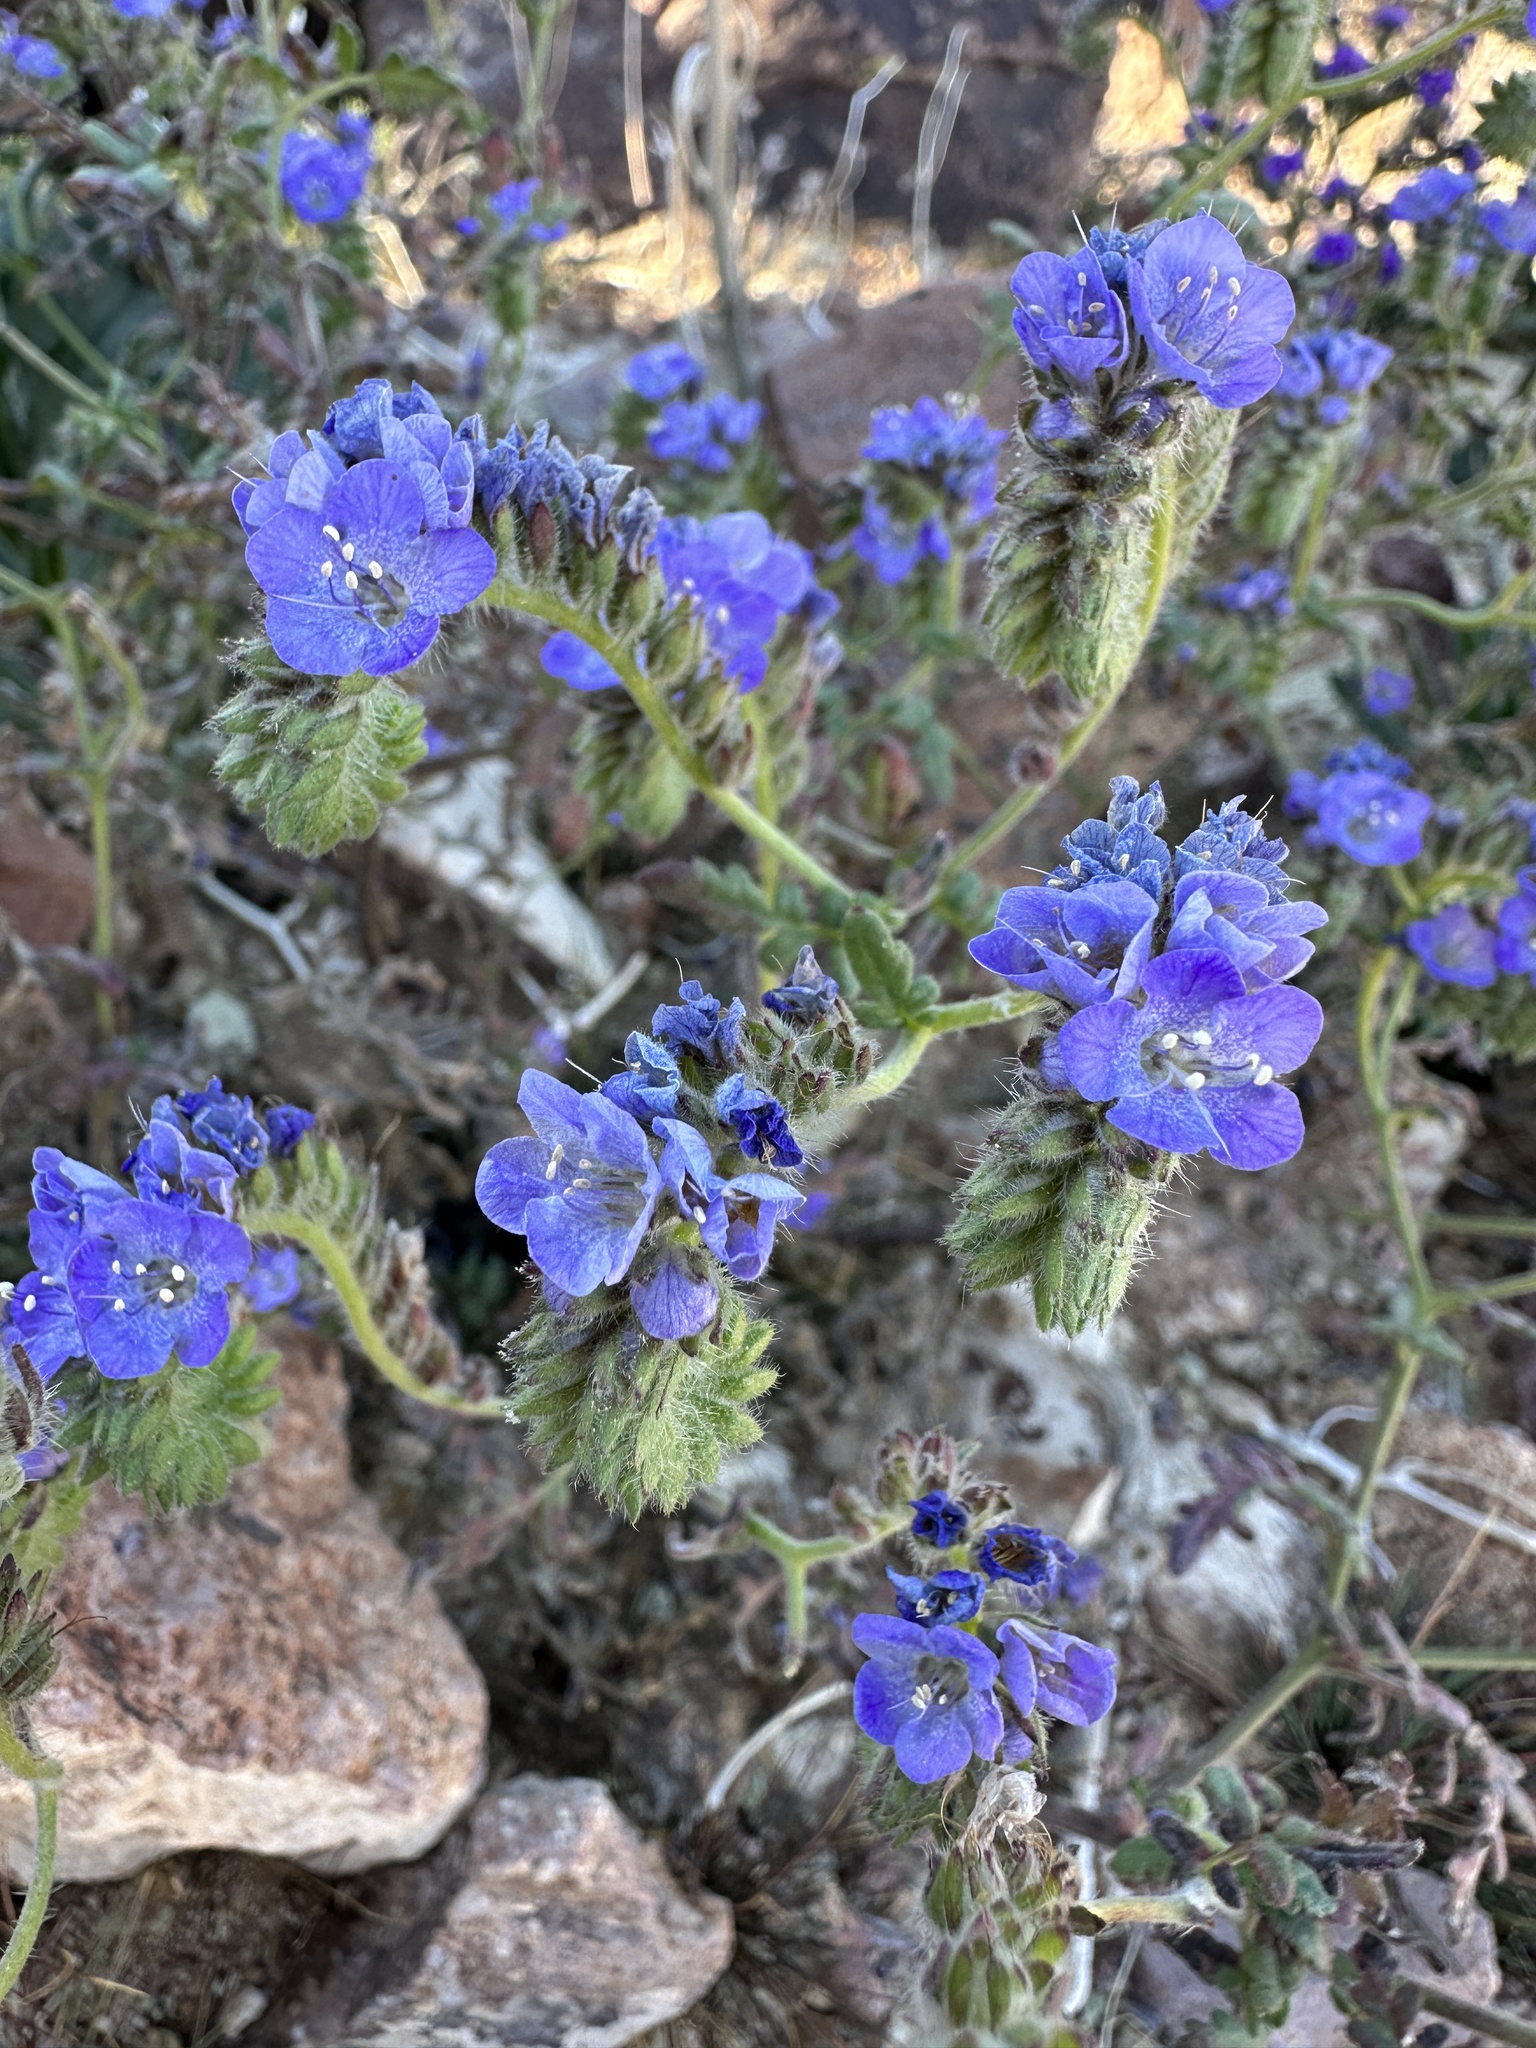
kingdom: Plantae
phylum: Tracheophyta
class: Magnoliopsida
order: Boraginales
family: Hydrophyllaceae
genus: Phacelia
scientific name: Phacelia distans
